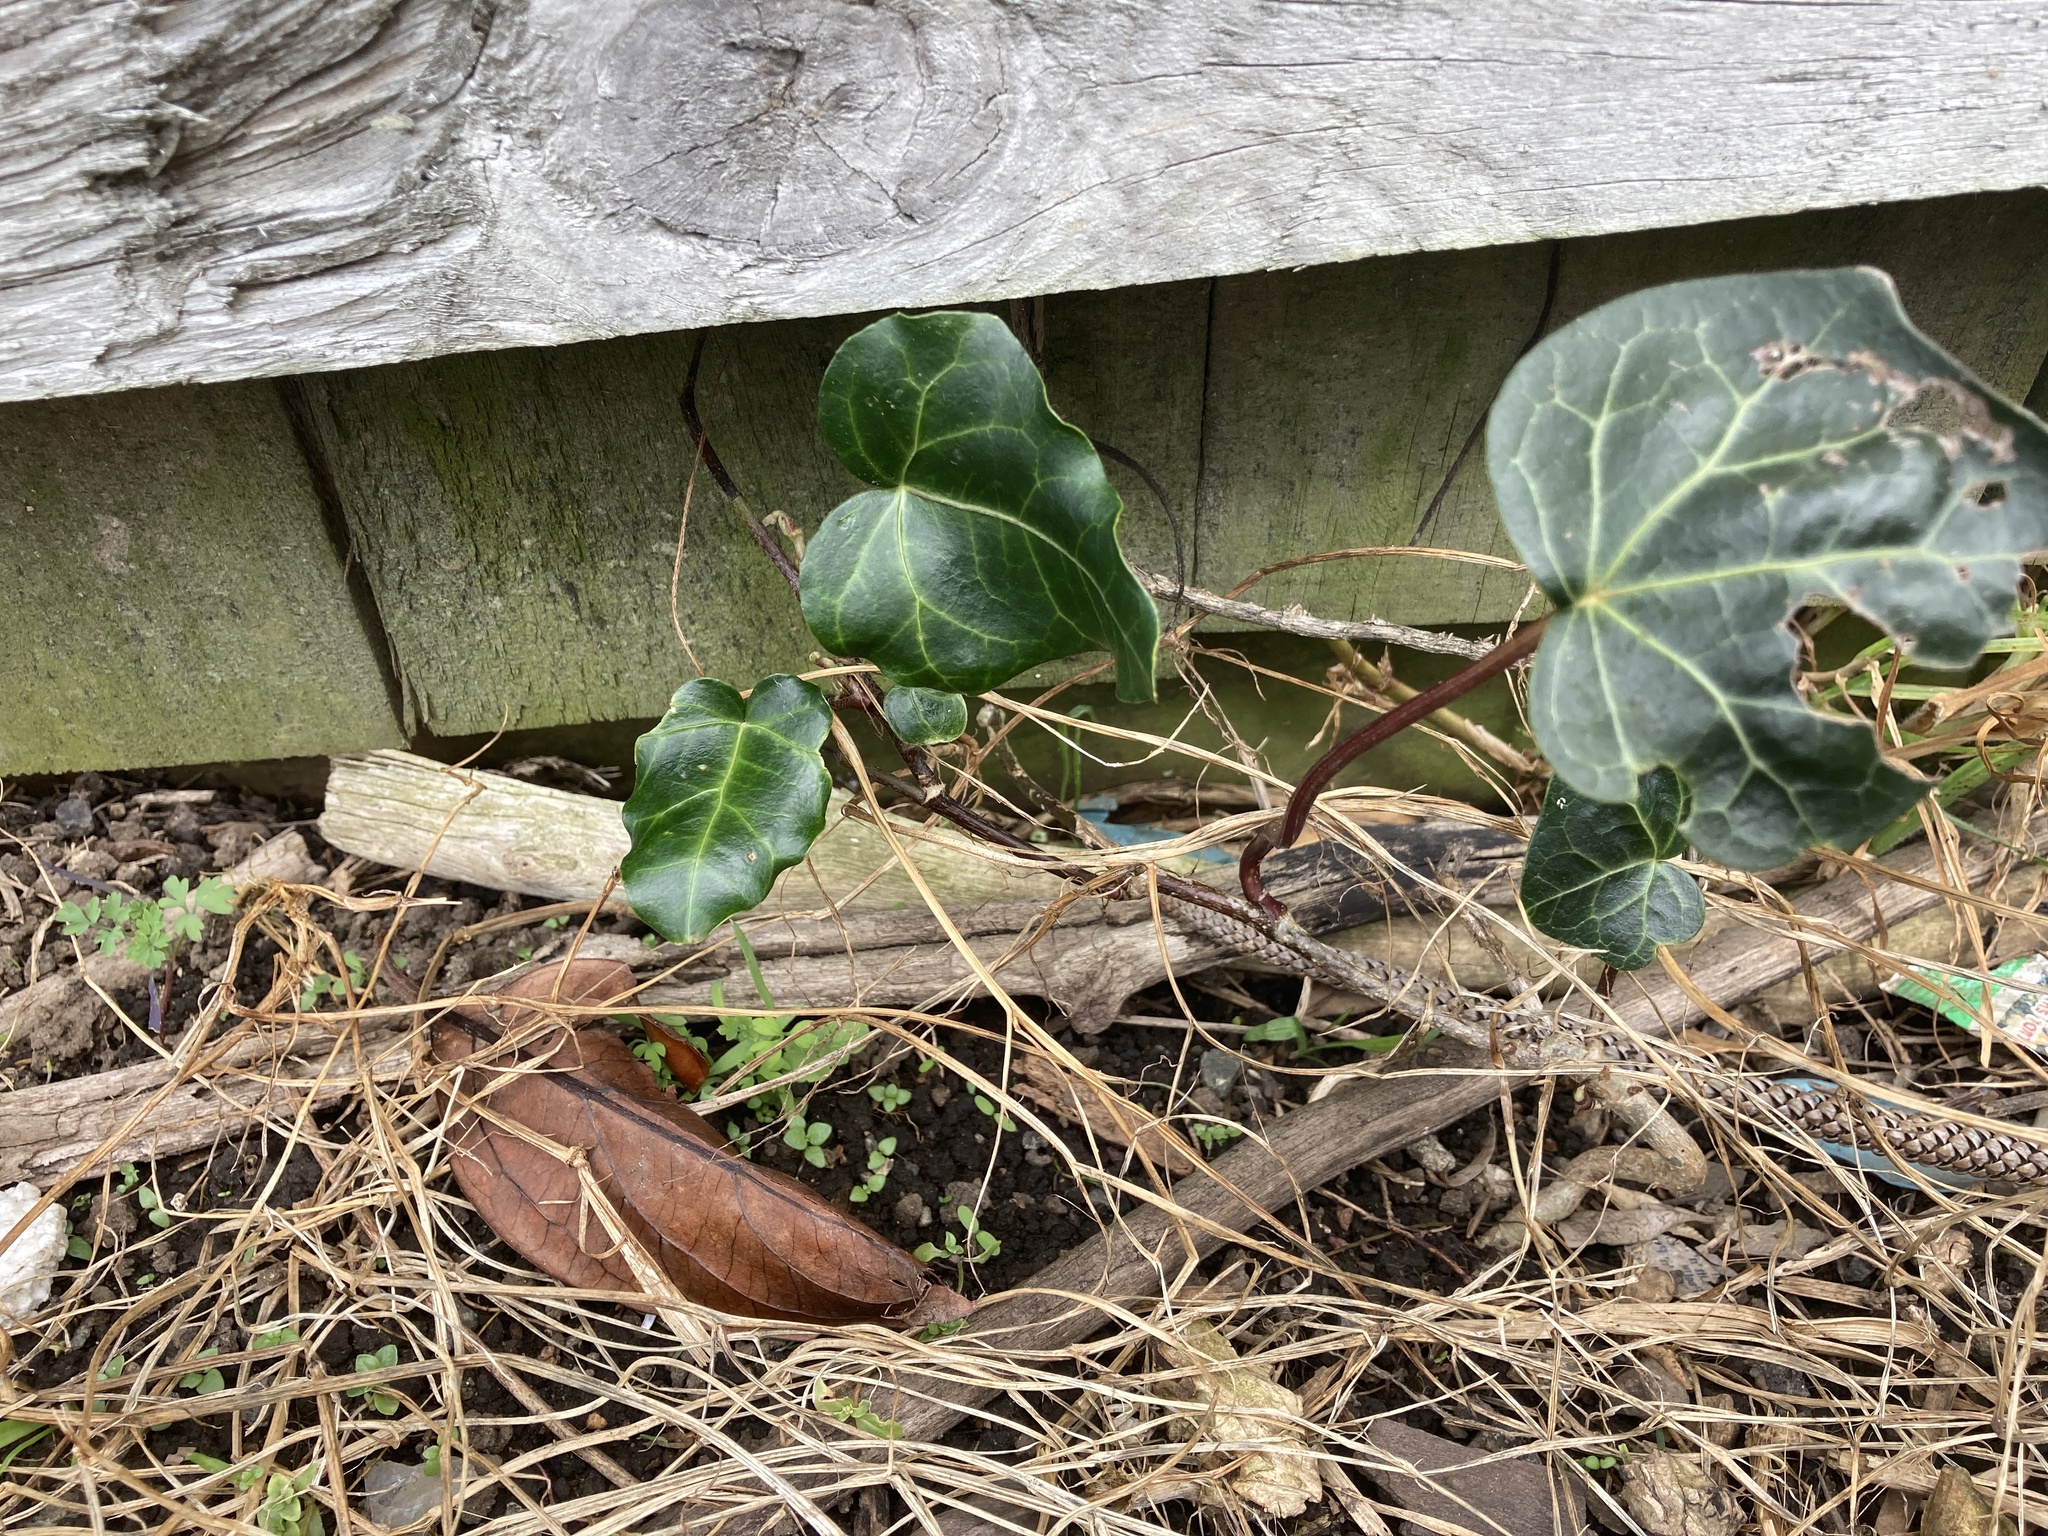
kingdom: Plantae
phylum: Tracheophyta
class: Magnoliopsida
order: Apiales
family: Araliaceae
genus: Hedera
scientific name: Hedera helix
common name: Ivy
